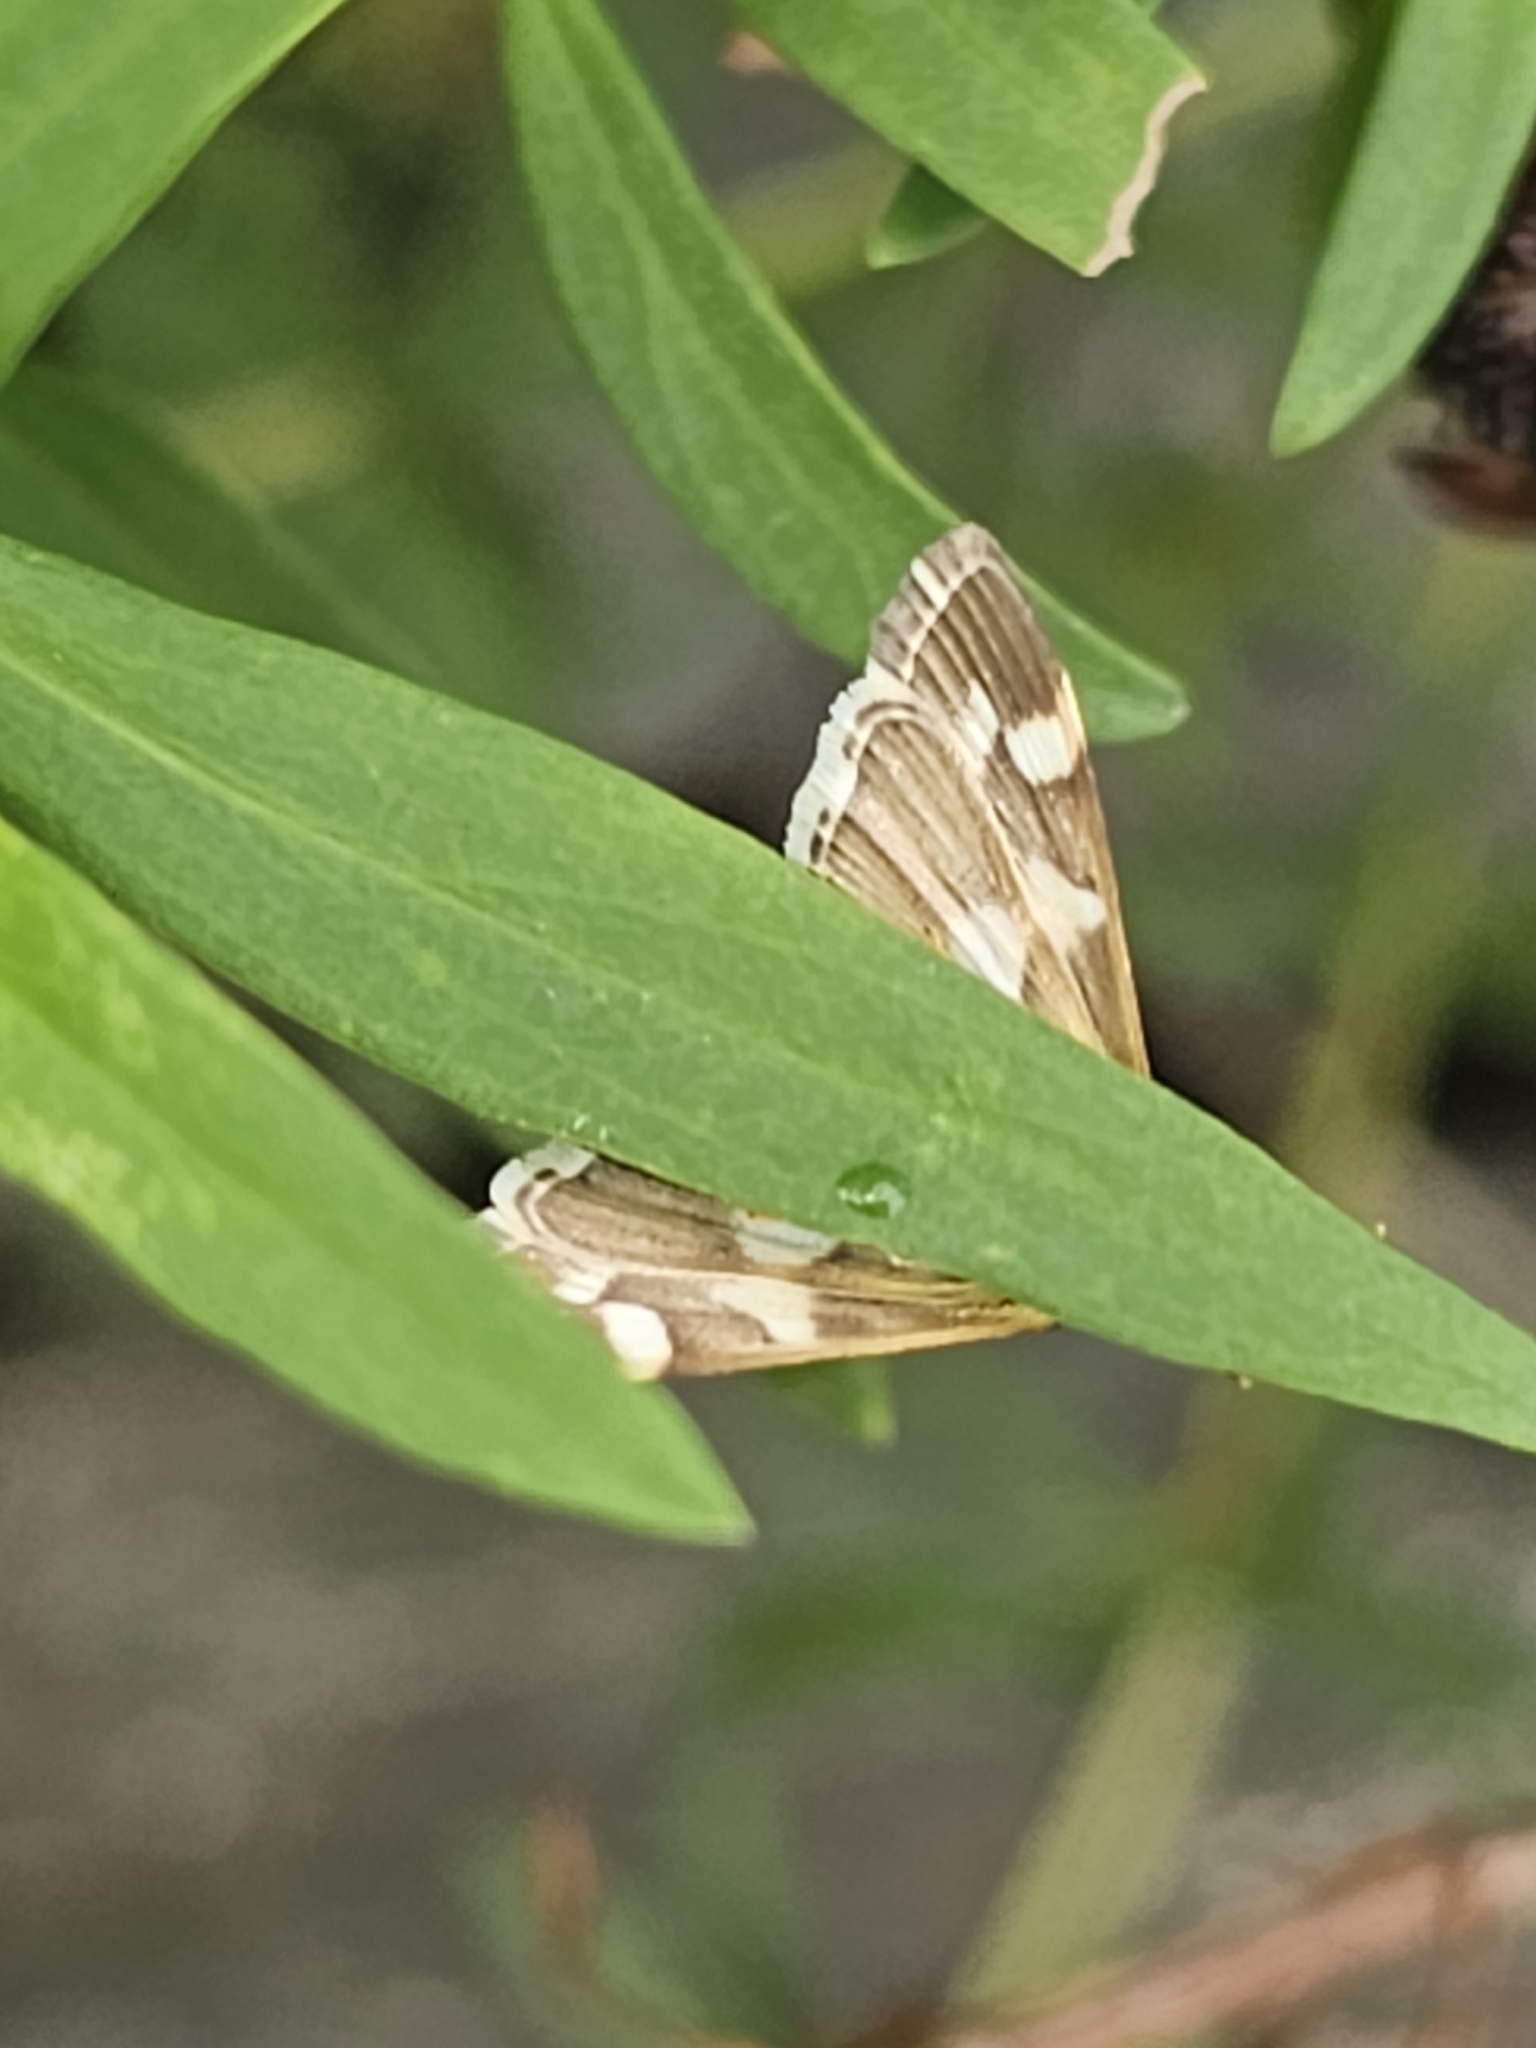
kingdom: Animalia
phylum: Arthropoda
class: Insecta
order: Lepidoptera
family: Crambidae
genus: Spoladea
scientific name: Spoladea recurvalis
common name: Beet webworm moth
